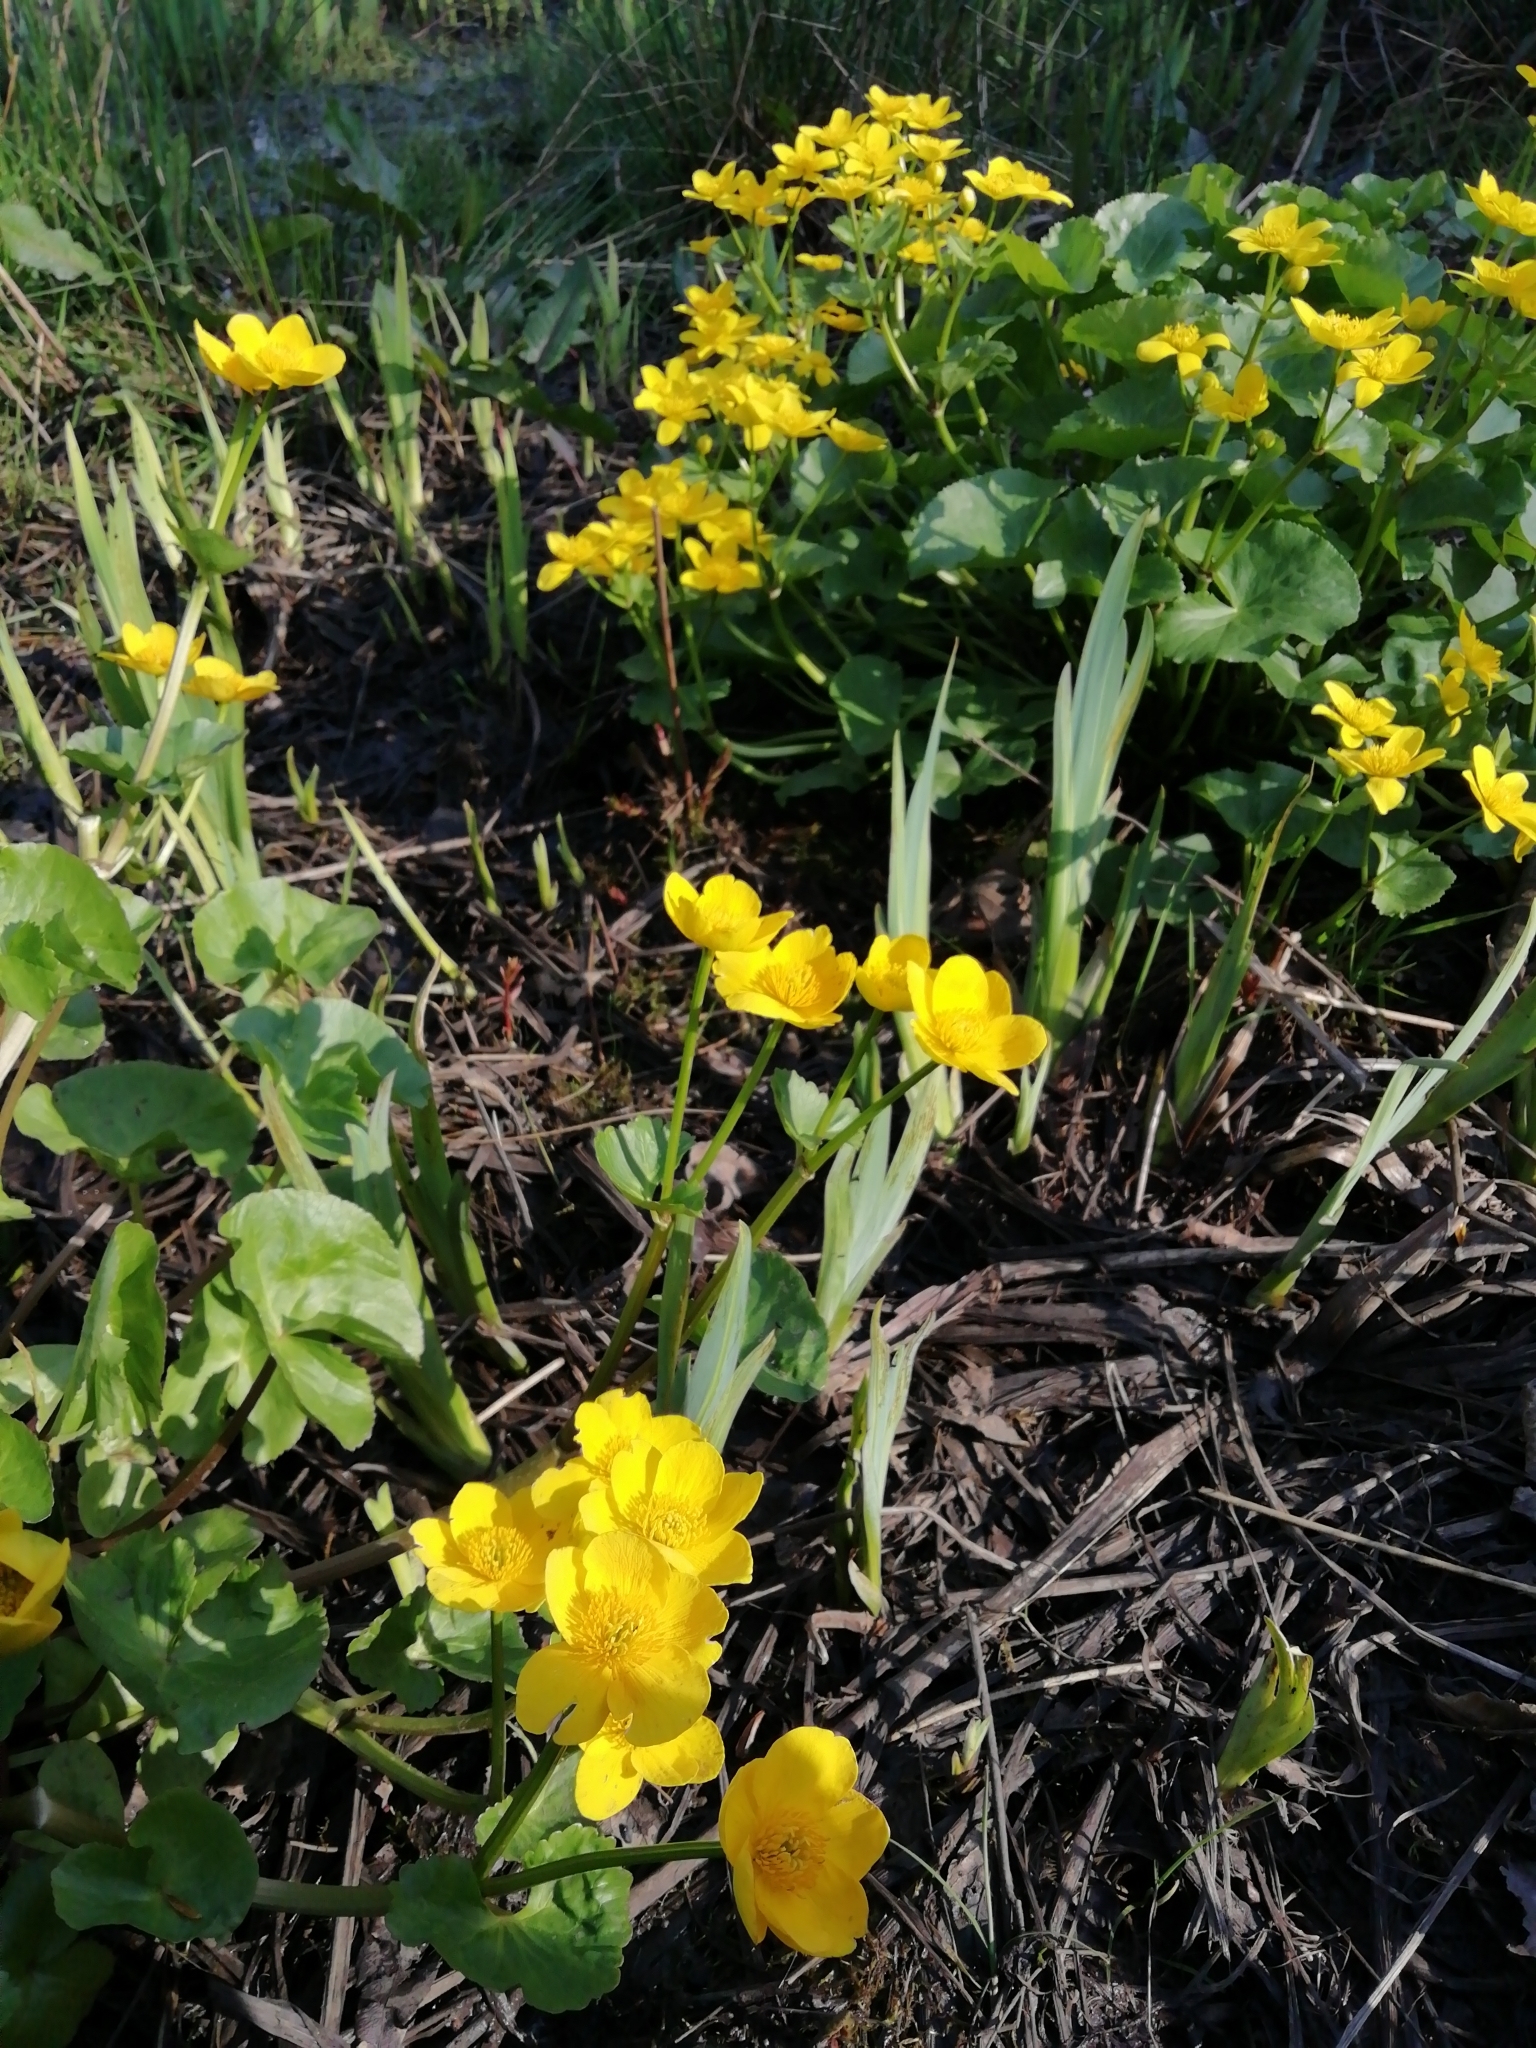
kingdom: Plantae
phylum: Tracheophyta
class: Magnoliopsida
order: Ranunculales
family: Ranunculaceae
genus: Caltha
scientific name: Caltha palustris
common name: Marsh marigold
